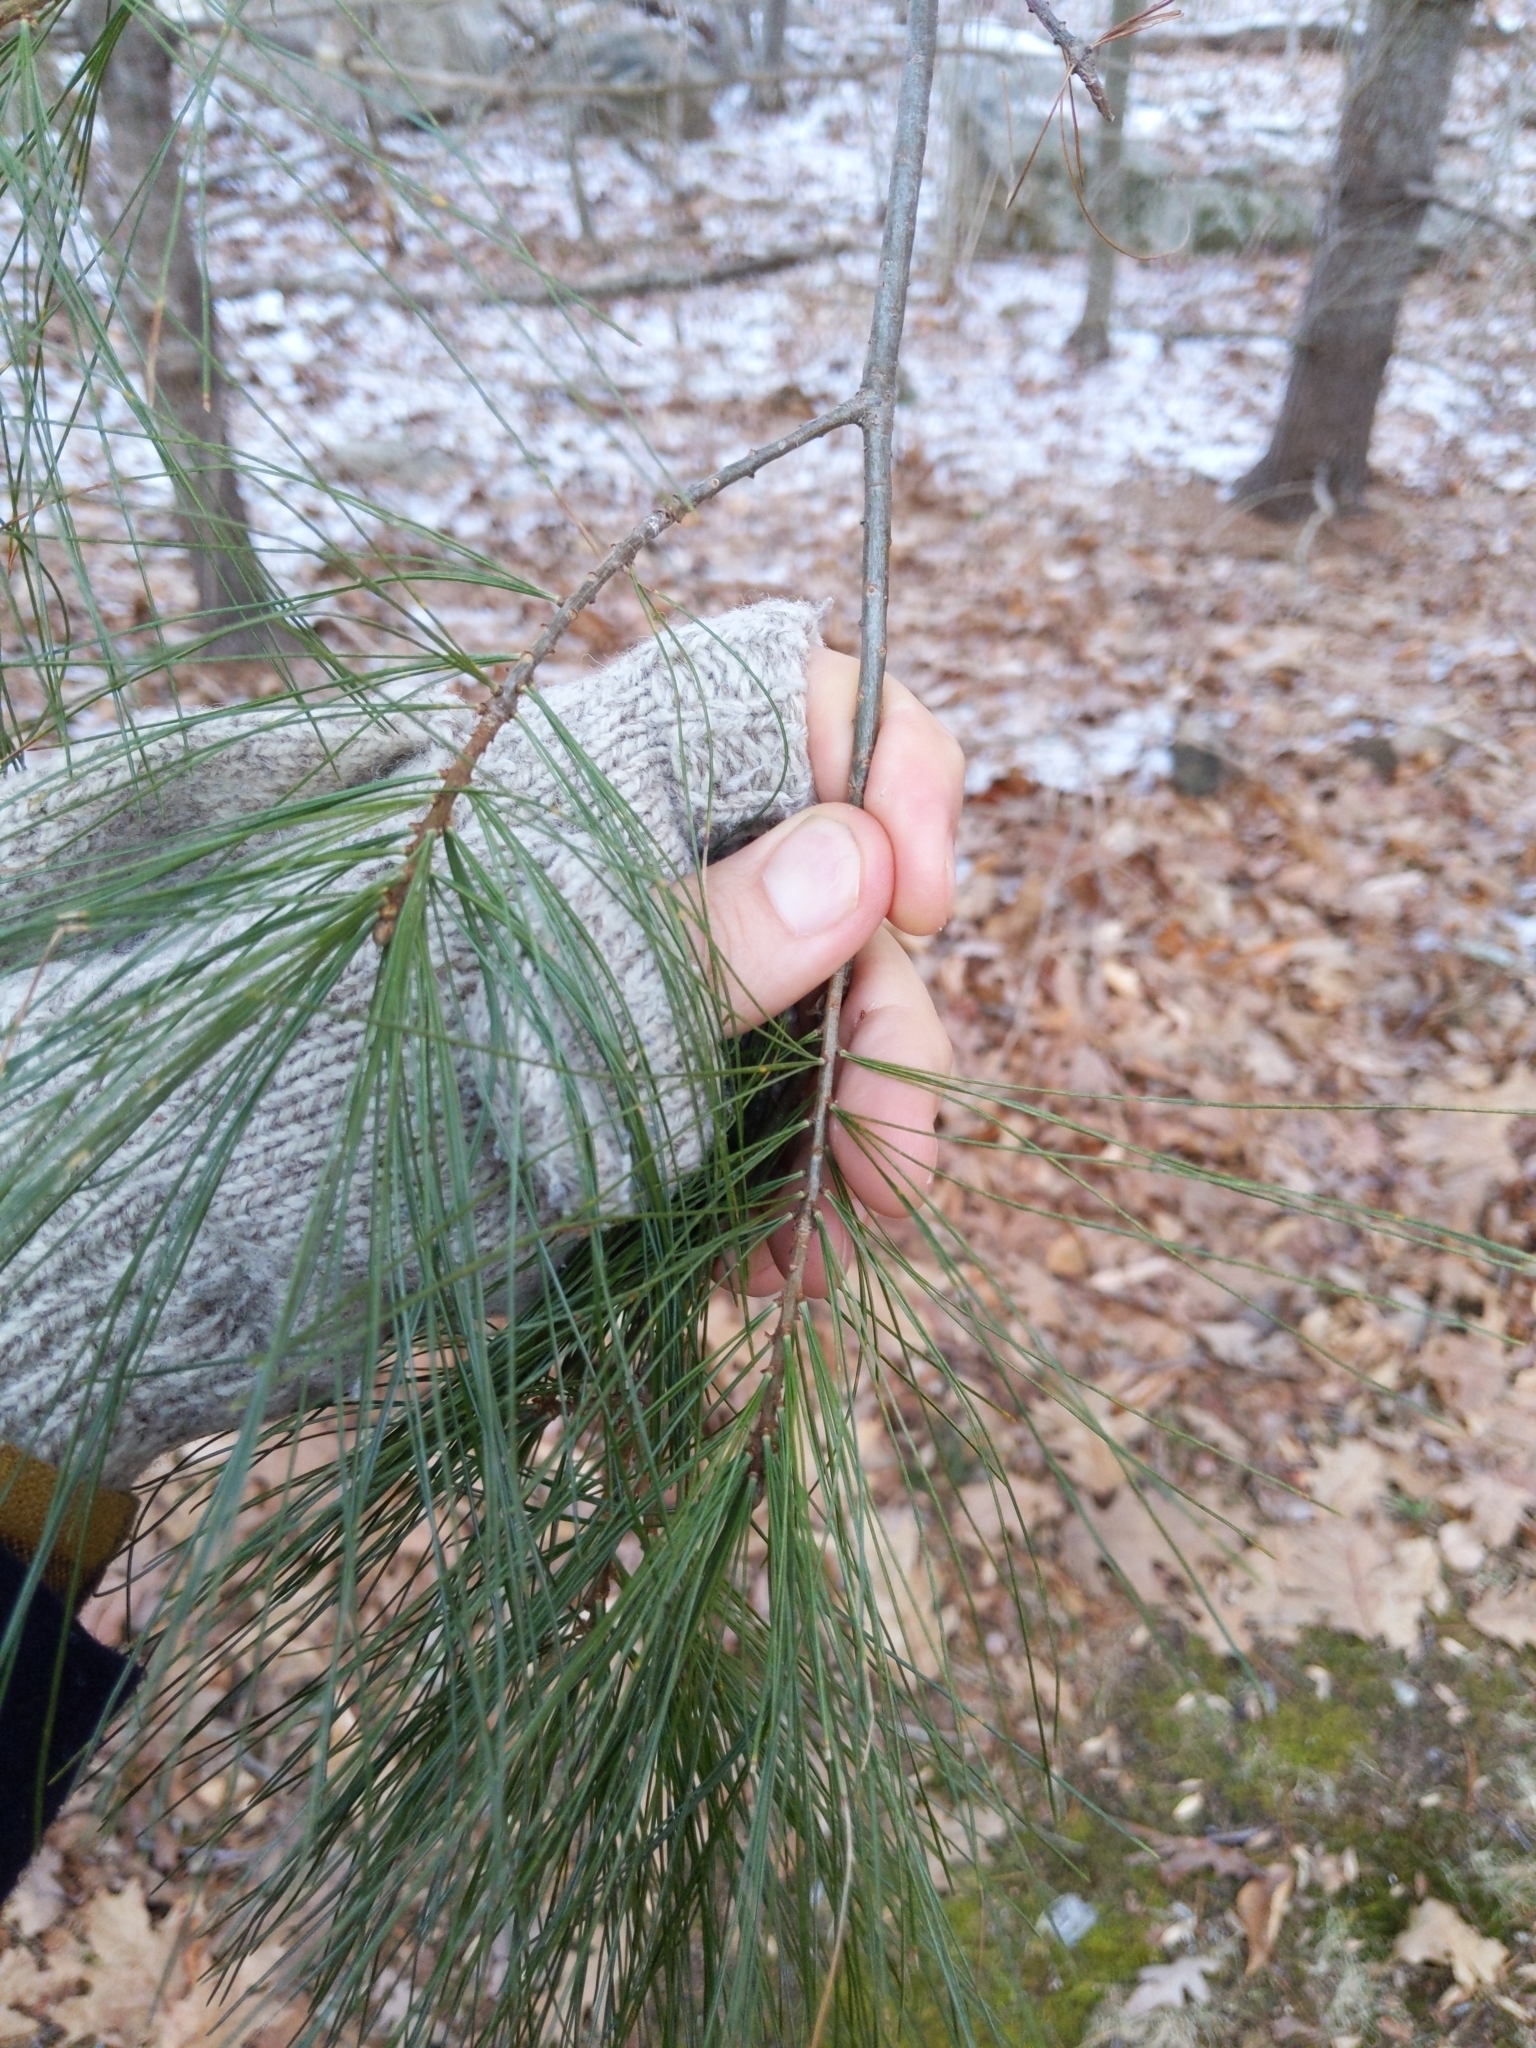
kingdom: Plantae
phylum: Tracheophyta
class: Pinopsida
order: Pinales
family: Pinaceae
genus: Pinus
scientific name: Pinus strobus
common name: Weymouth pine
